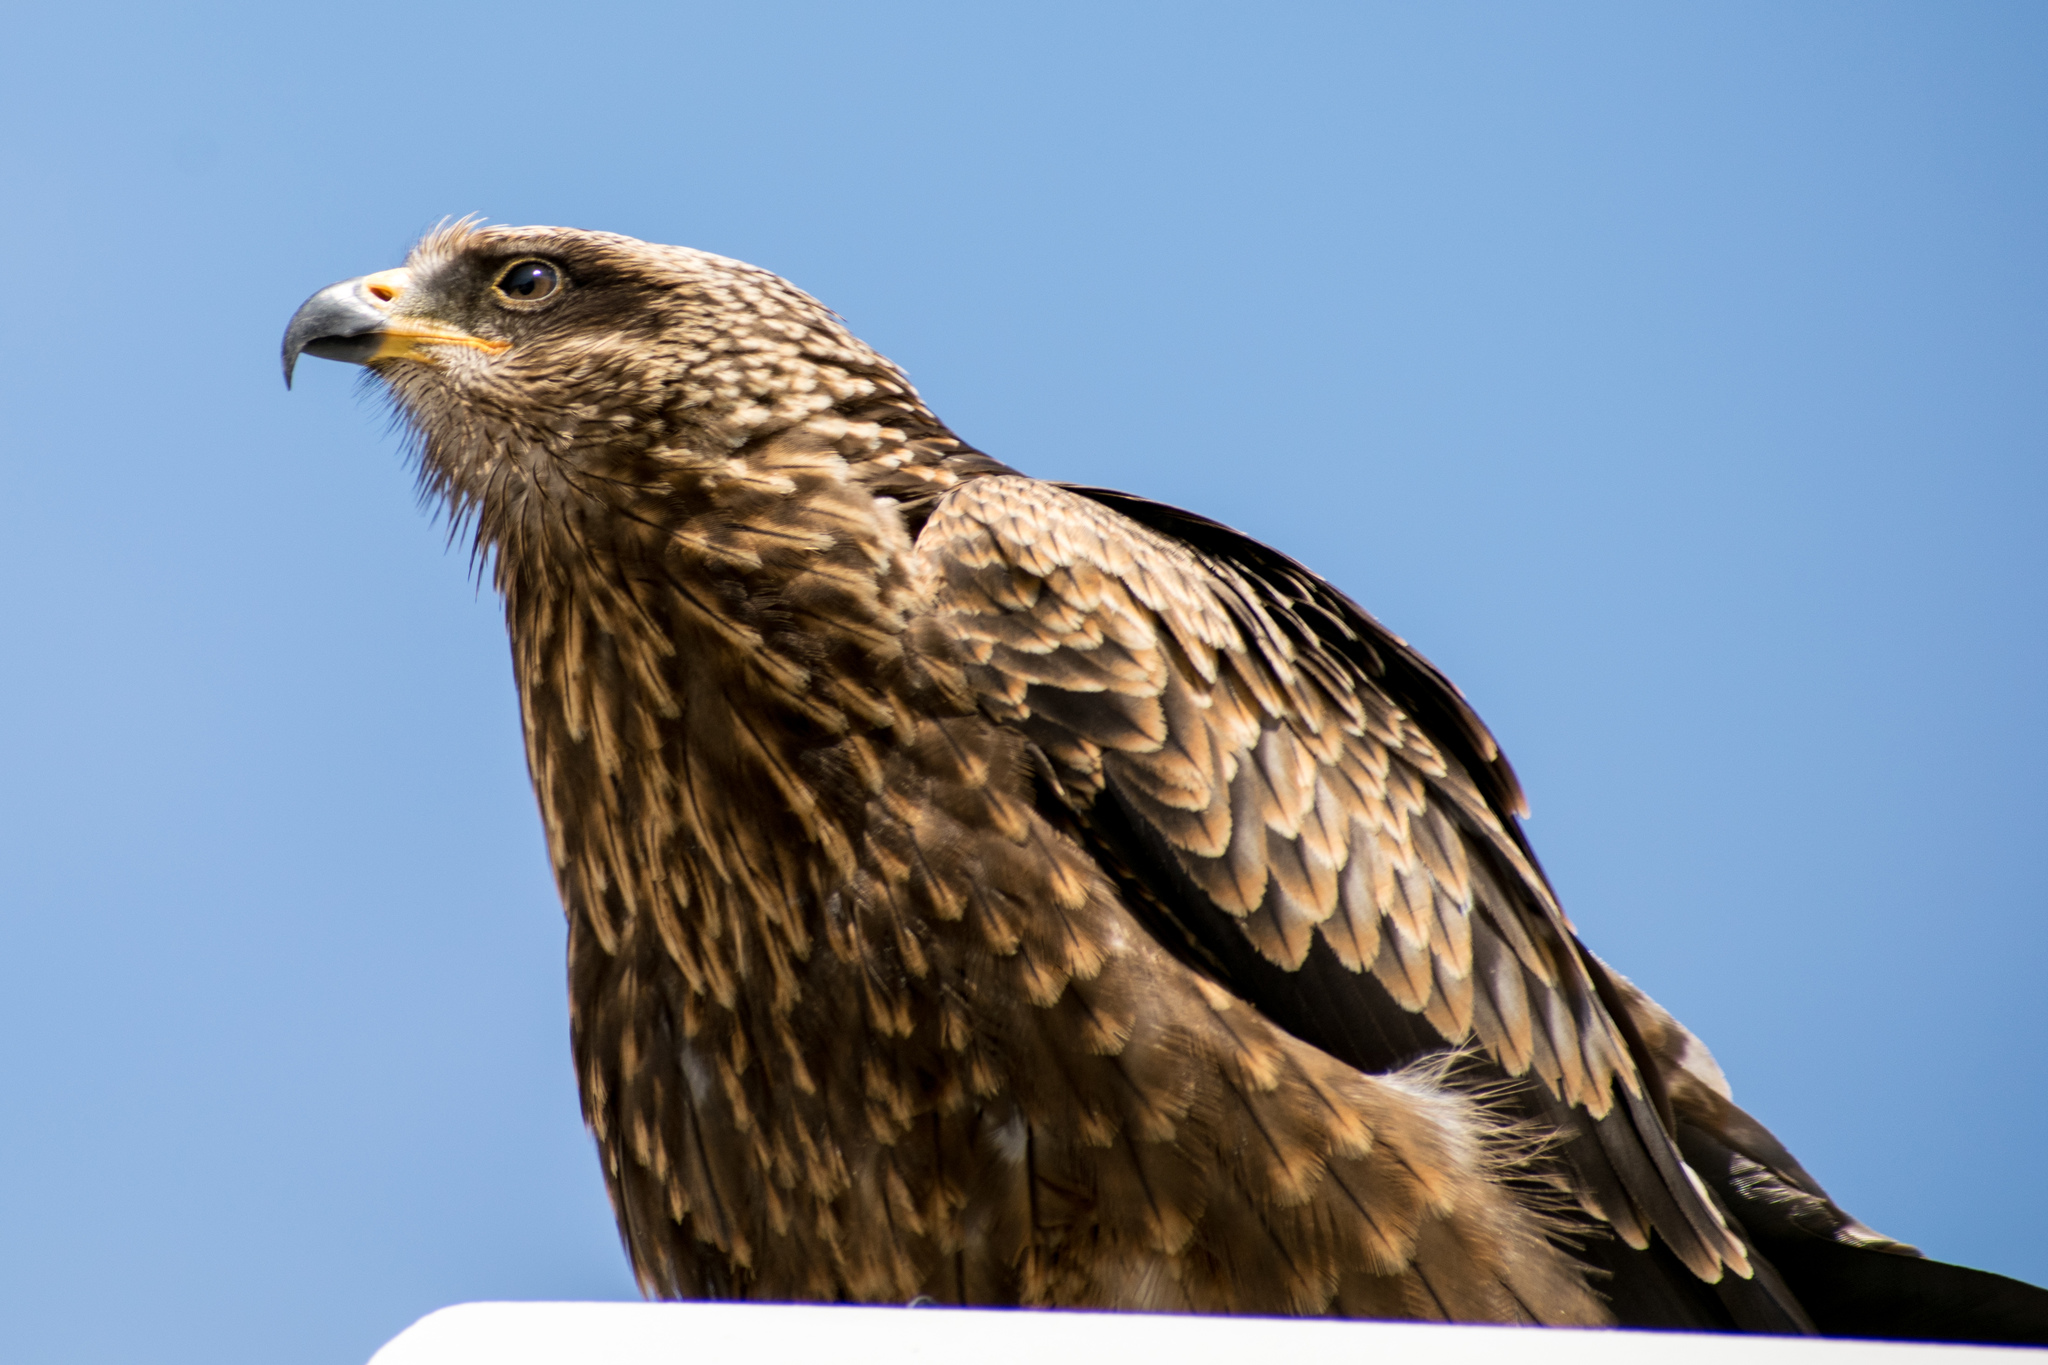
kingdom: Animalia
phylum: Chordata
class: Aves
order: Accipitriformes
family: Accipitridae
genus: Milvus
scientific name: Milvus migrans
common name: Black kite
